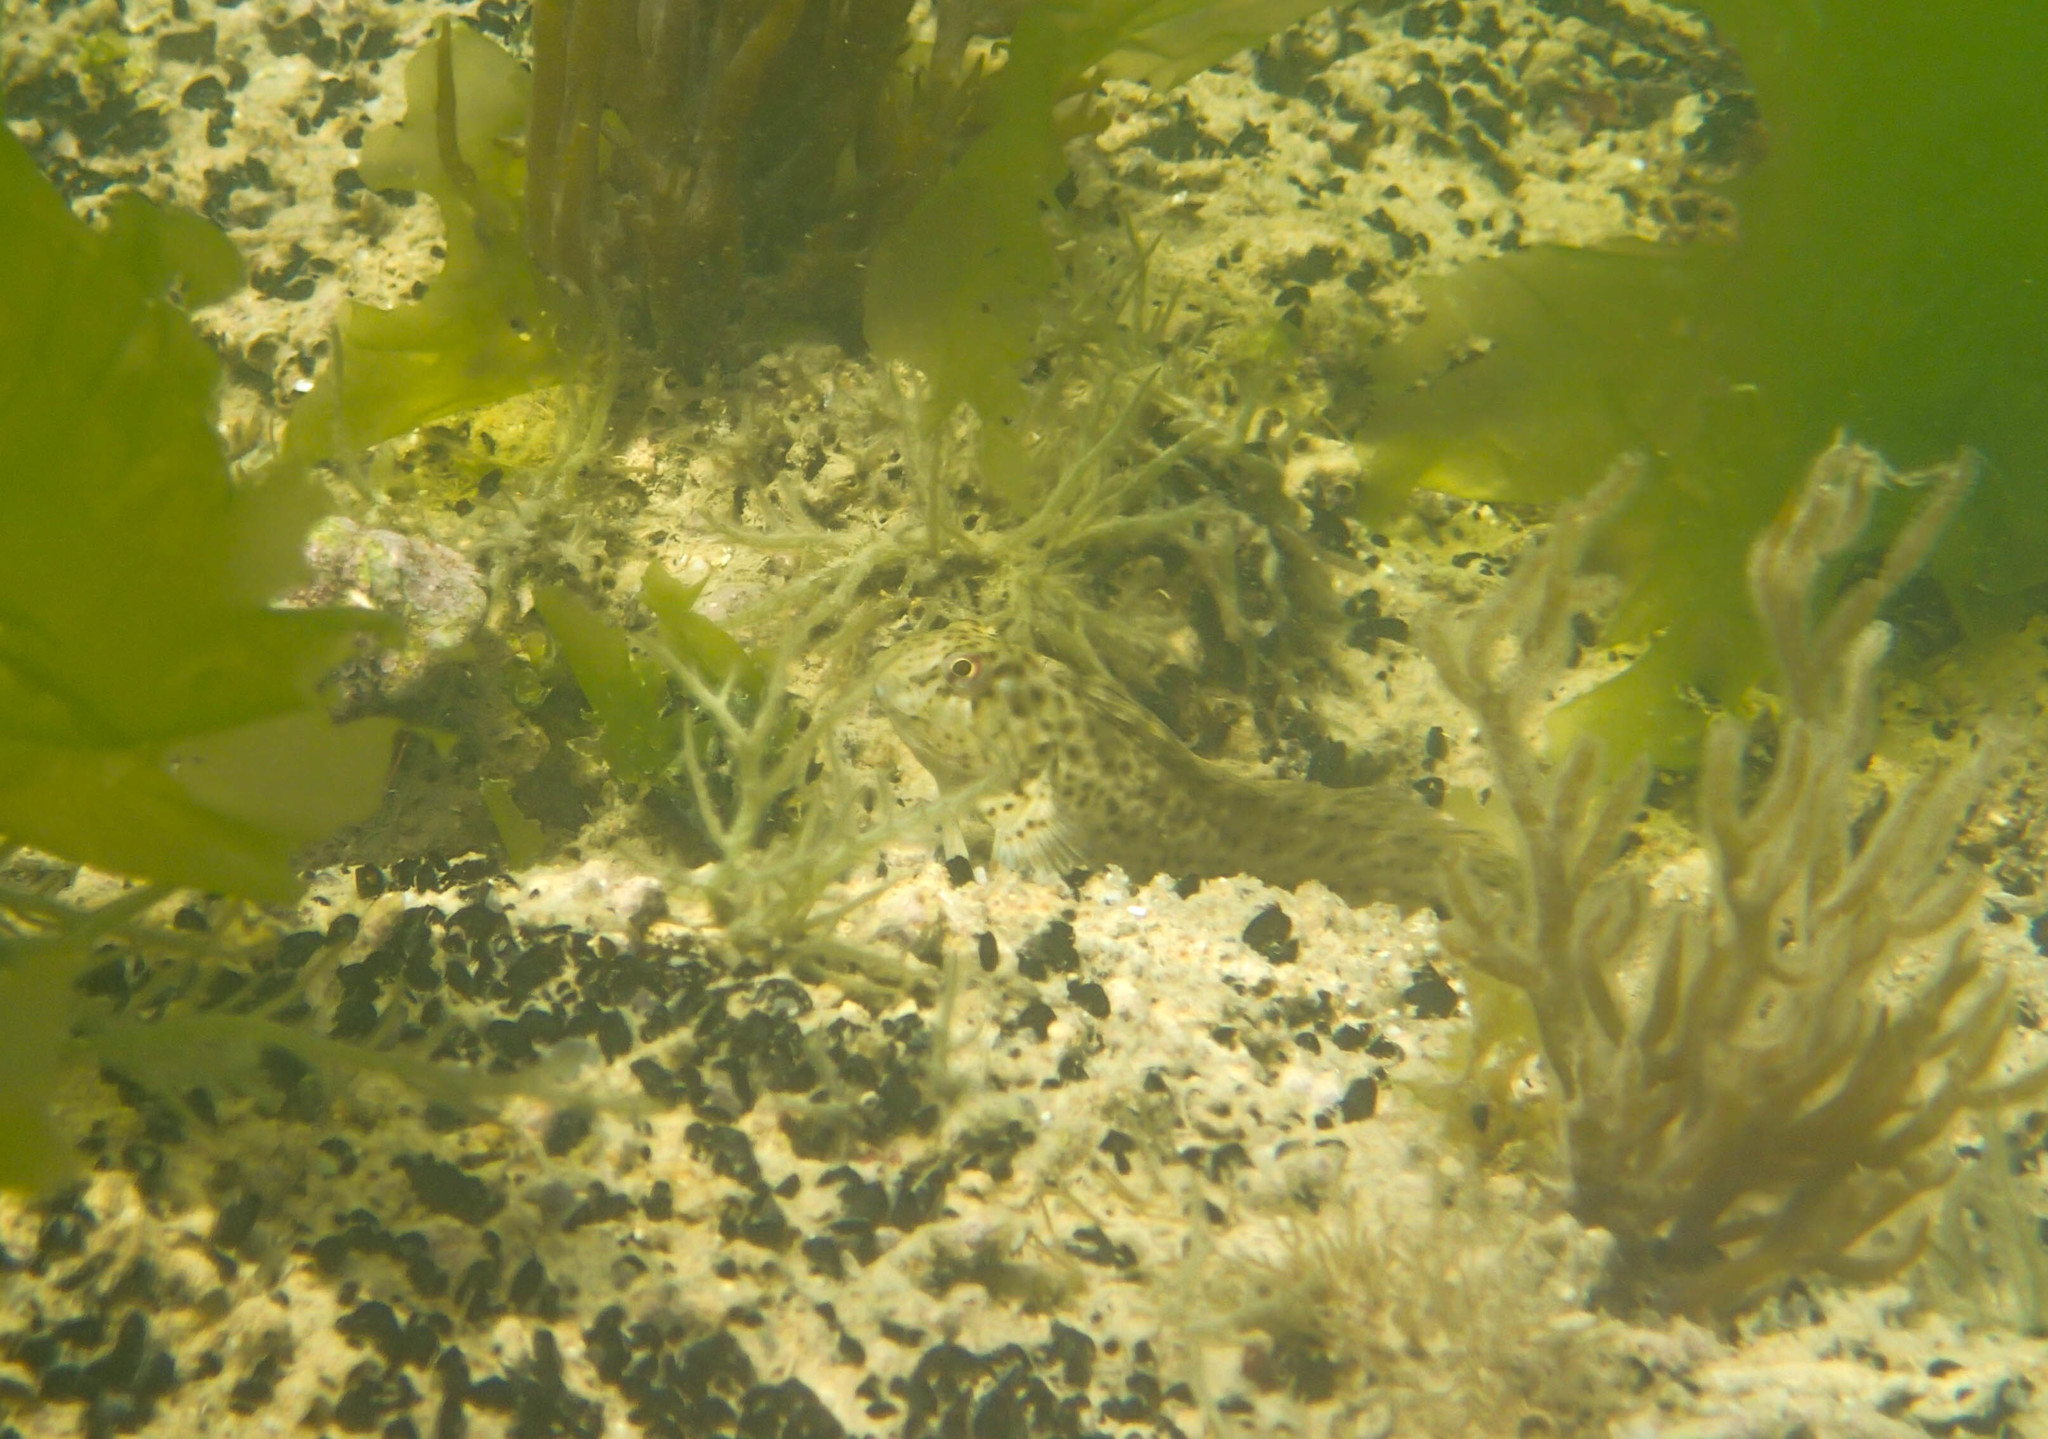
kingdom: Animalia
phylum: Chordata
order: Perciformes
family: Blenniidae
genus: Parablennius
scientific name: Parablennius sanguinolentus
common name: Black sea blenny
